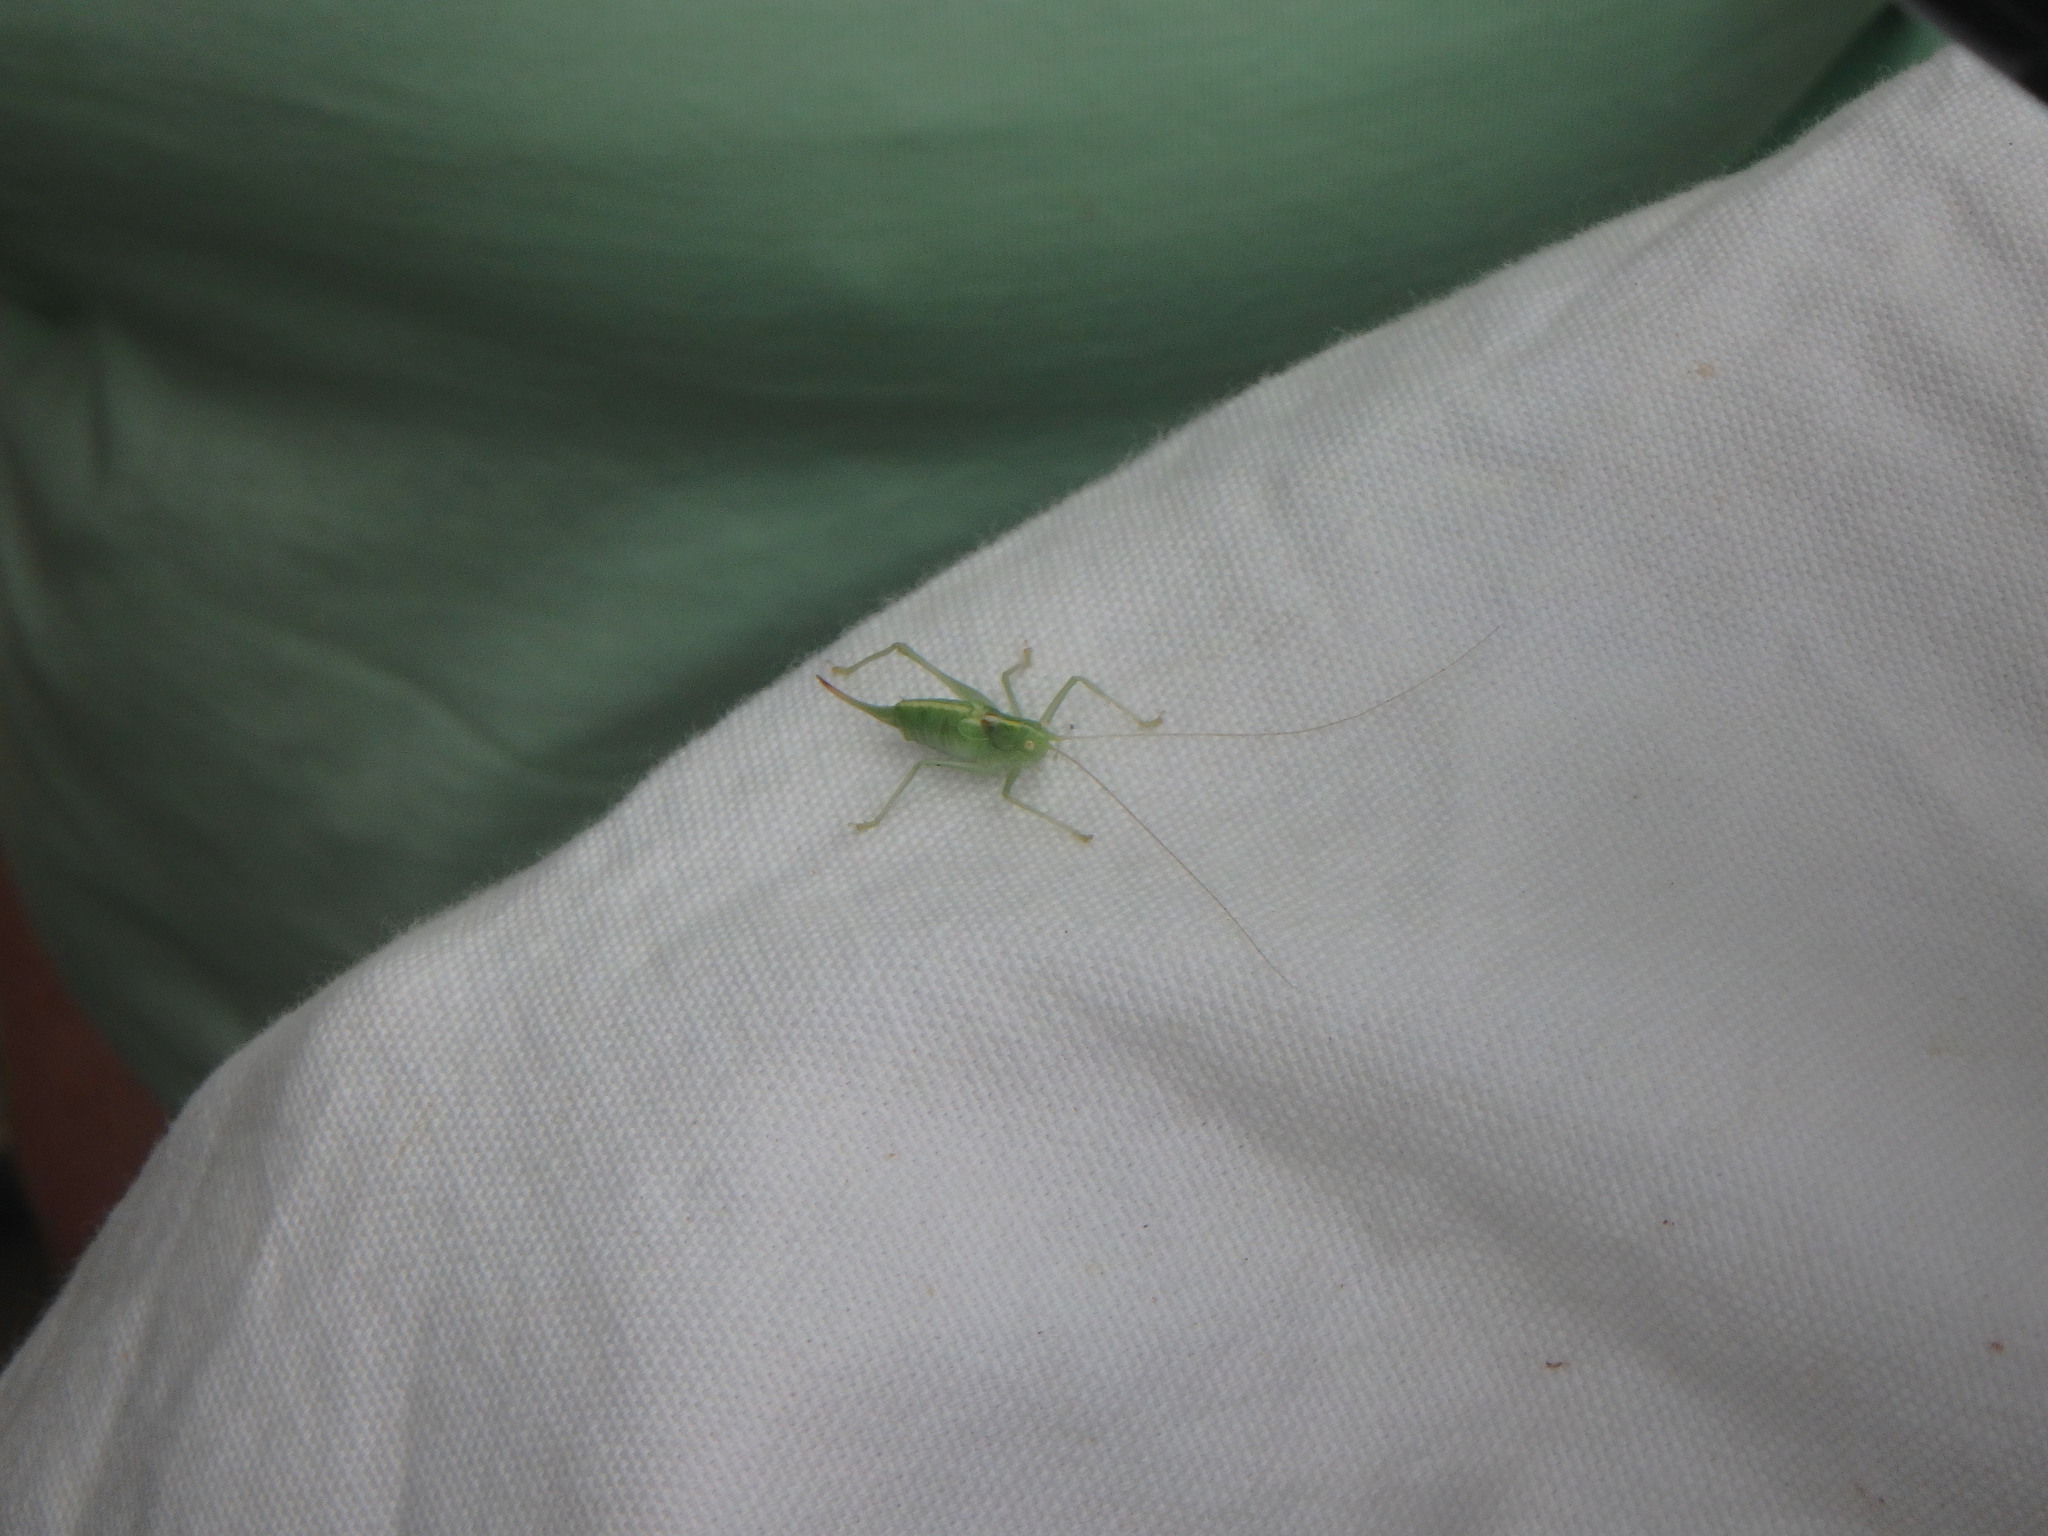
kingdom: Animalia
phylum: Arthropoda
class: Insecta
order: Orthoptera
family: Tettigoniidae
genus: Meconema
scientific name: Meconema meridionale
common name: Southern oak bush-cricket
